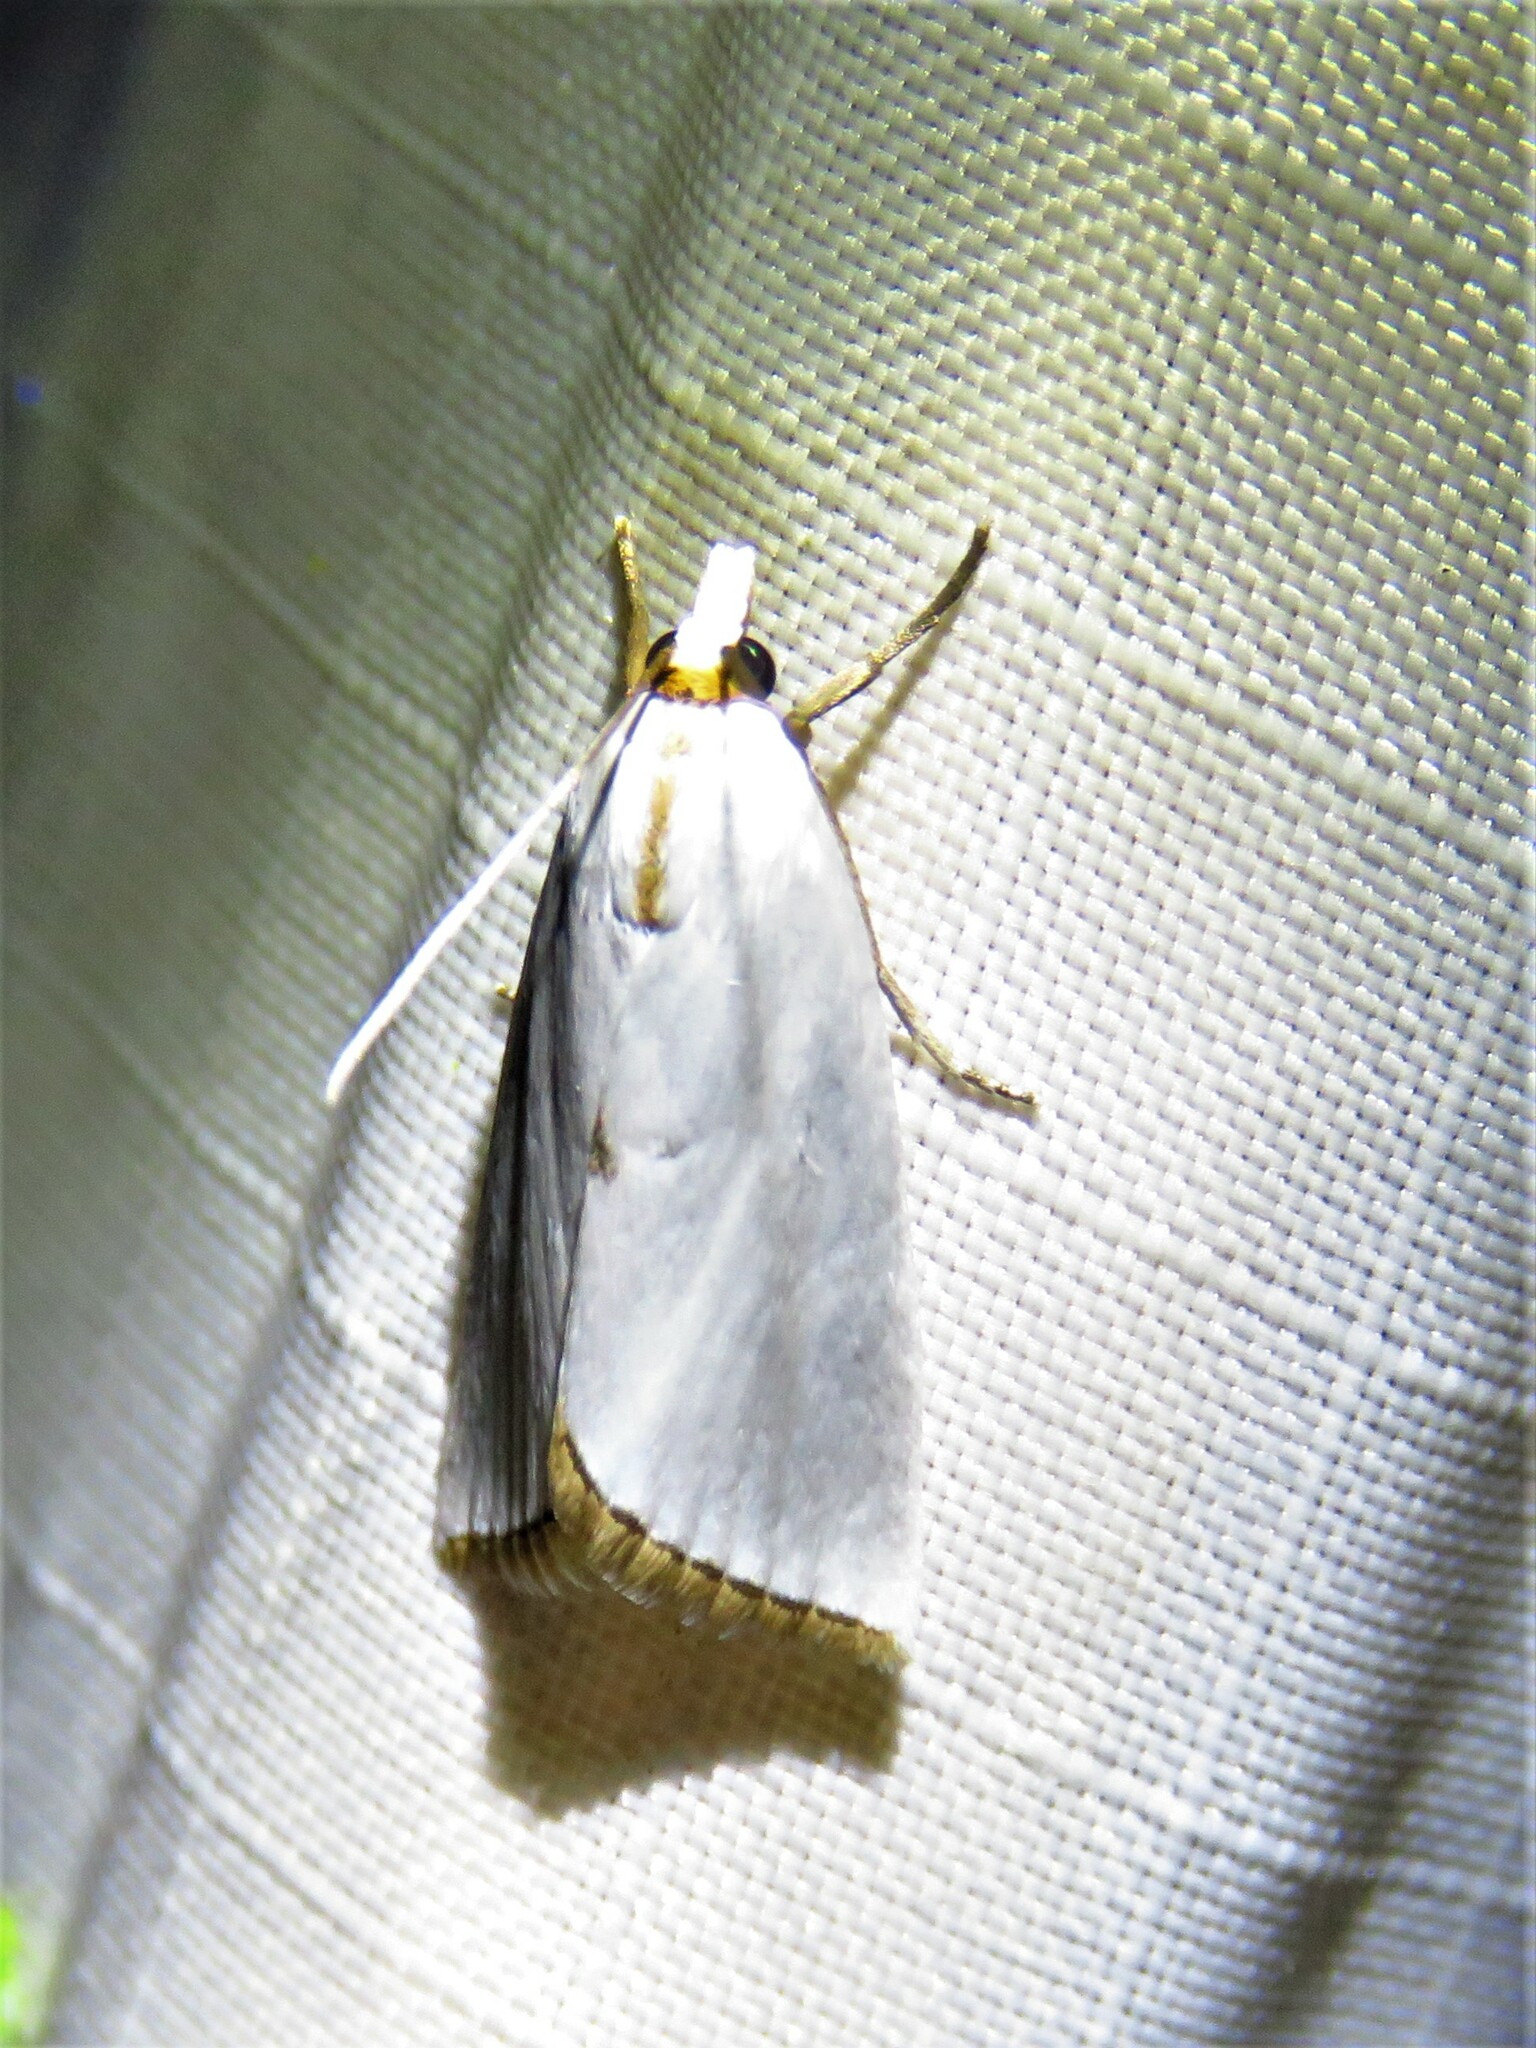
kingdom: Animalia
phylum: Arthropoda
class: Insecta
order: Lepidoptera
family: Crambidae
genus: Argyria
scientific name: Argyria nivalis
